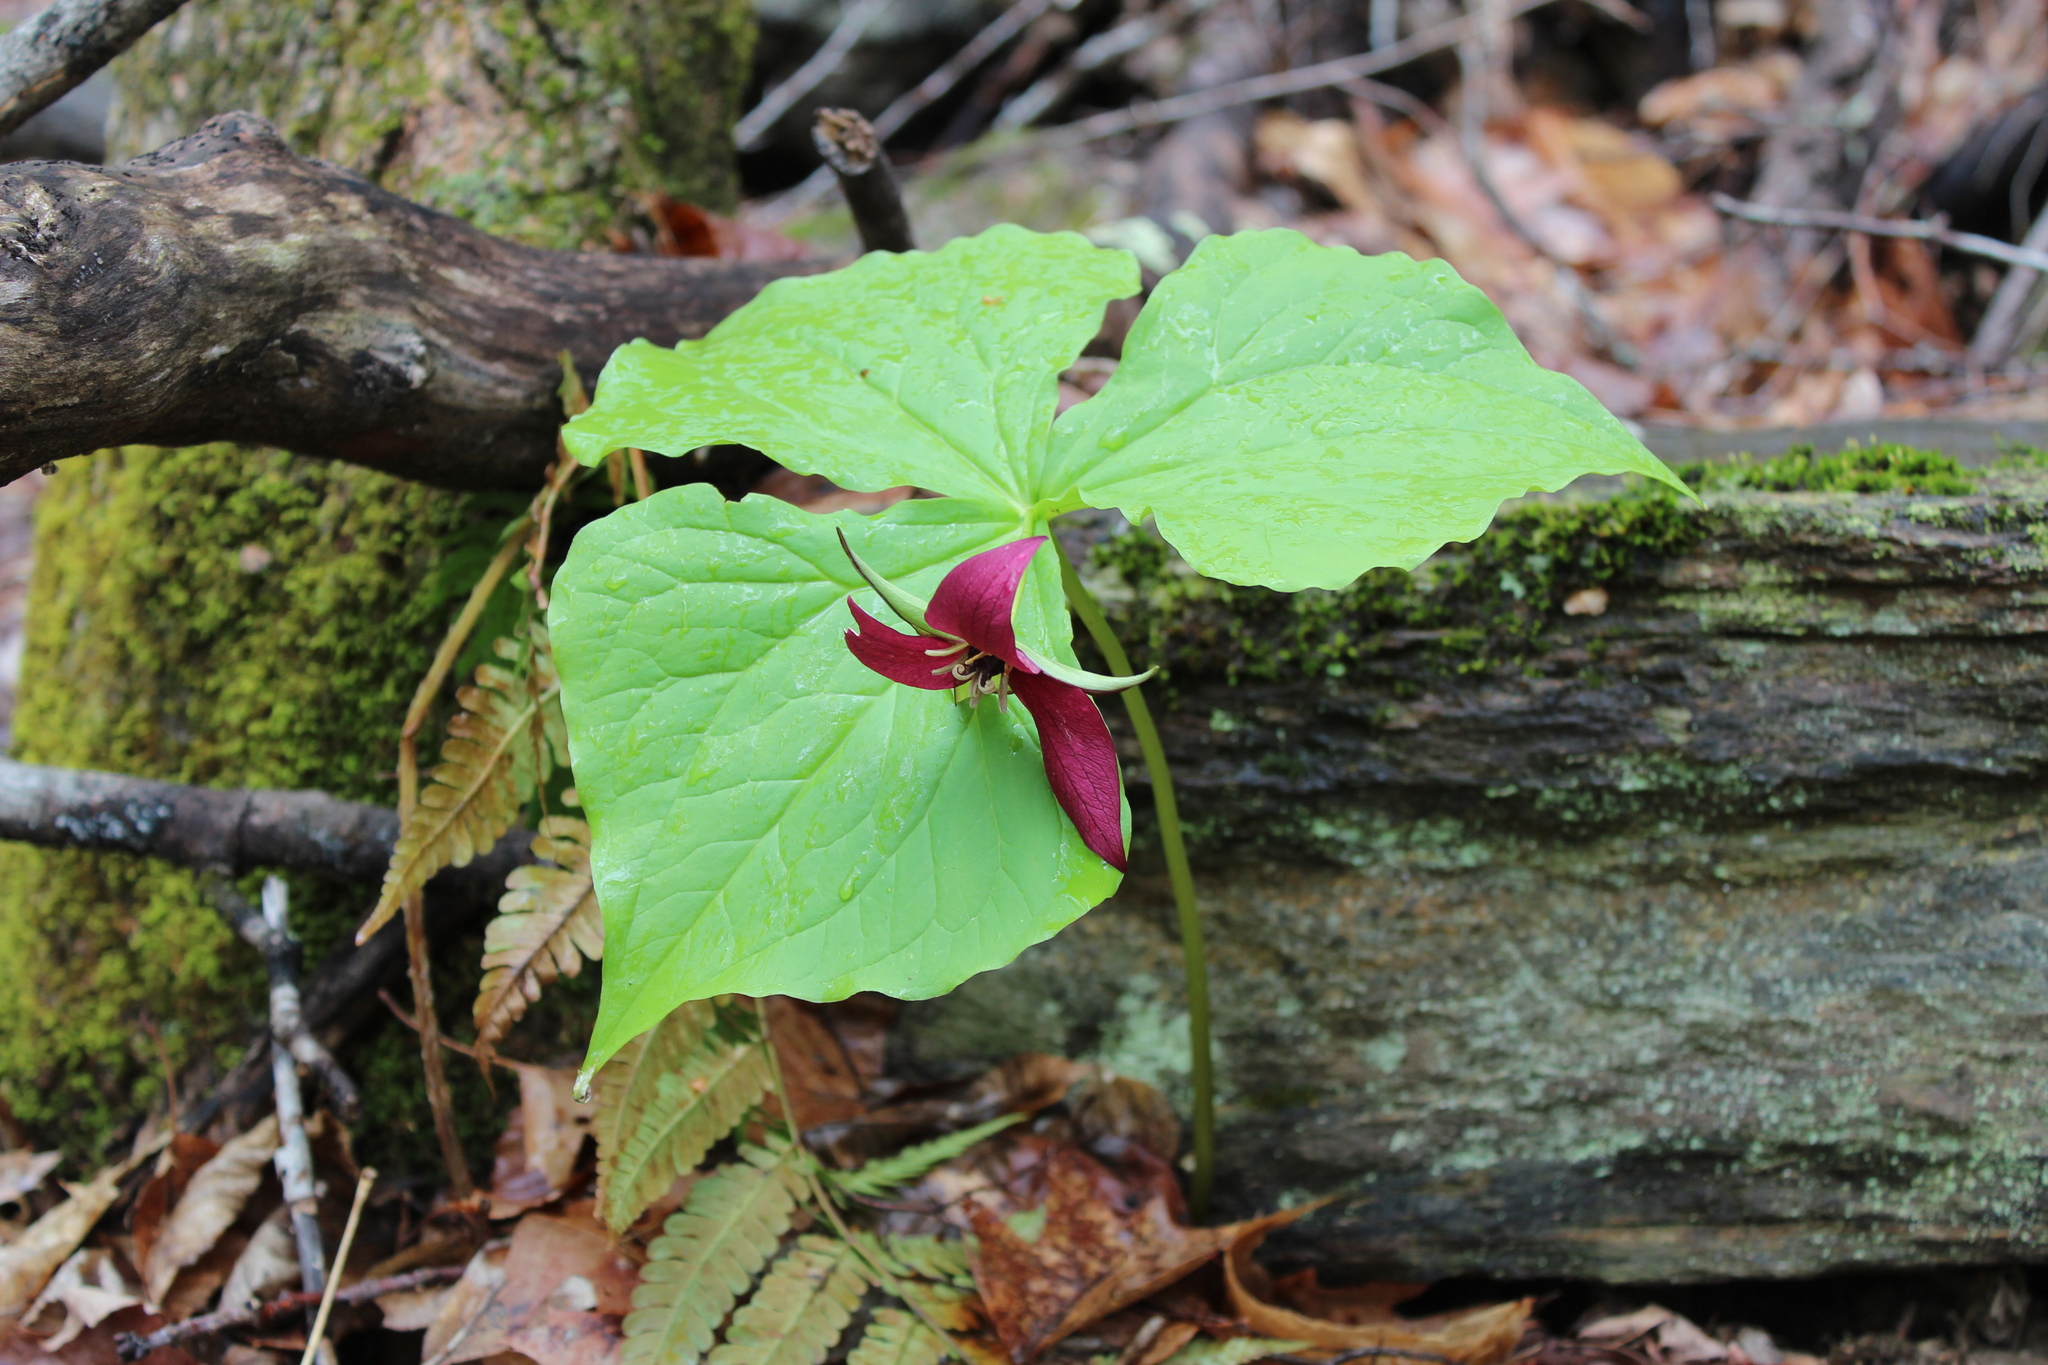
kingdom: Plantae
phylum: Tracheophyta
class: Liliopsida
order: Liliales
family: Melanthiaceae
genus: Trillium
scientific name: Trillium erectum
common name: Purple trillium
